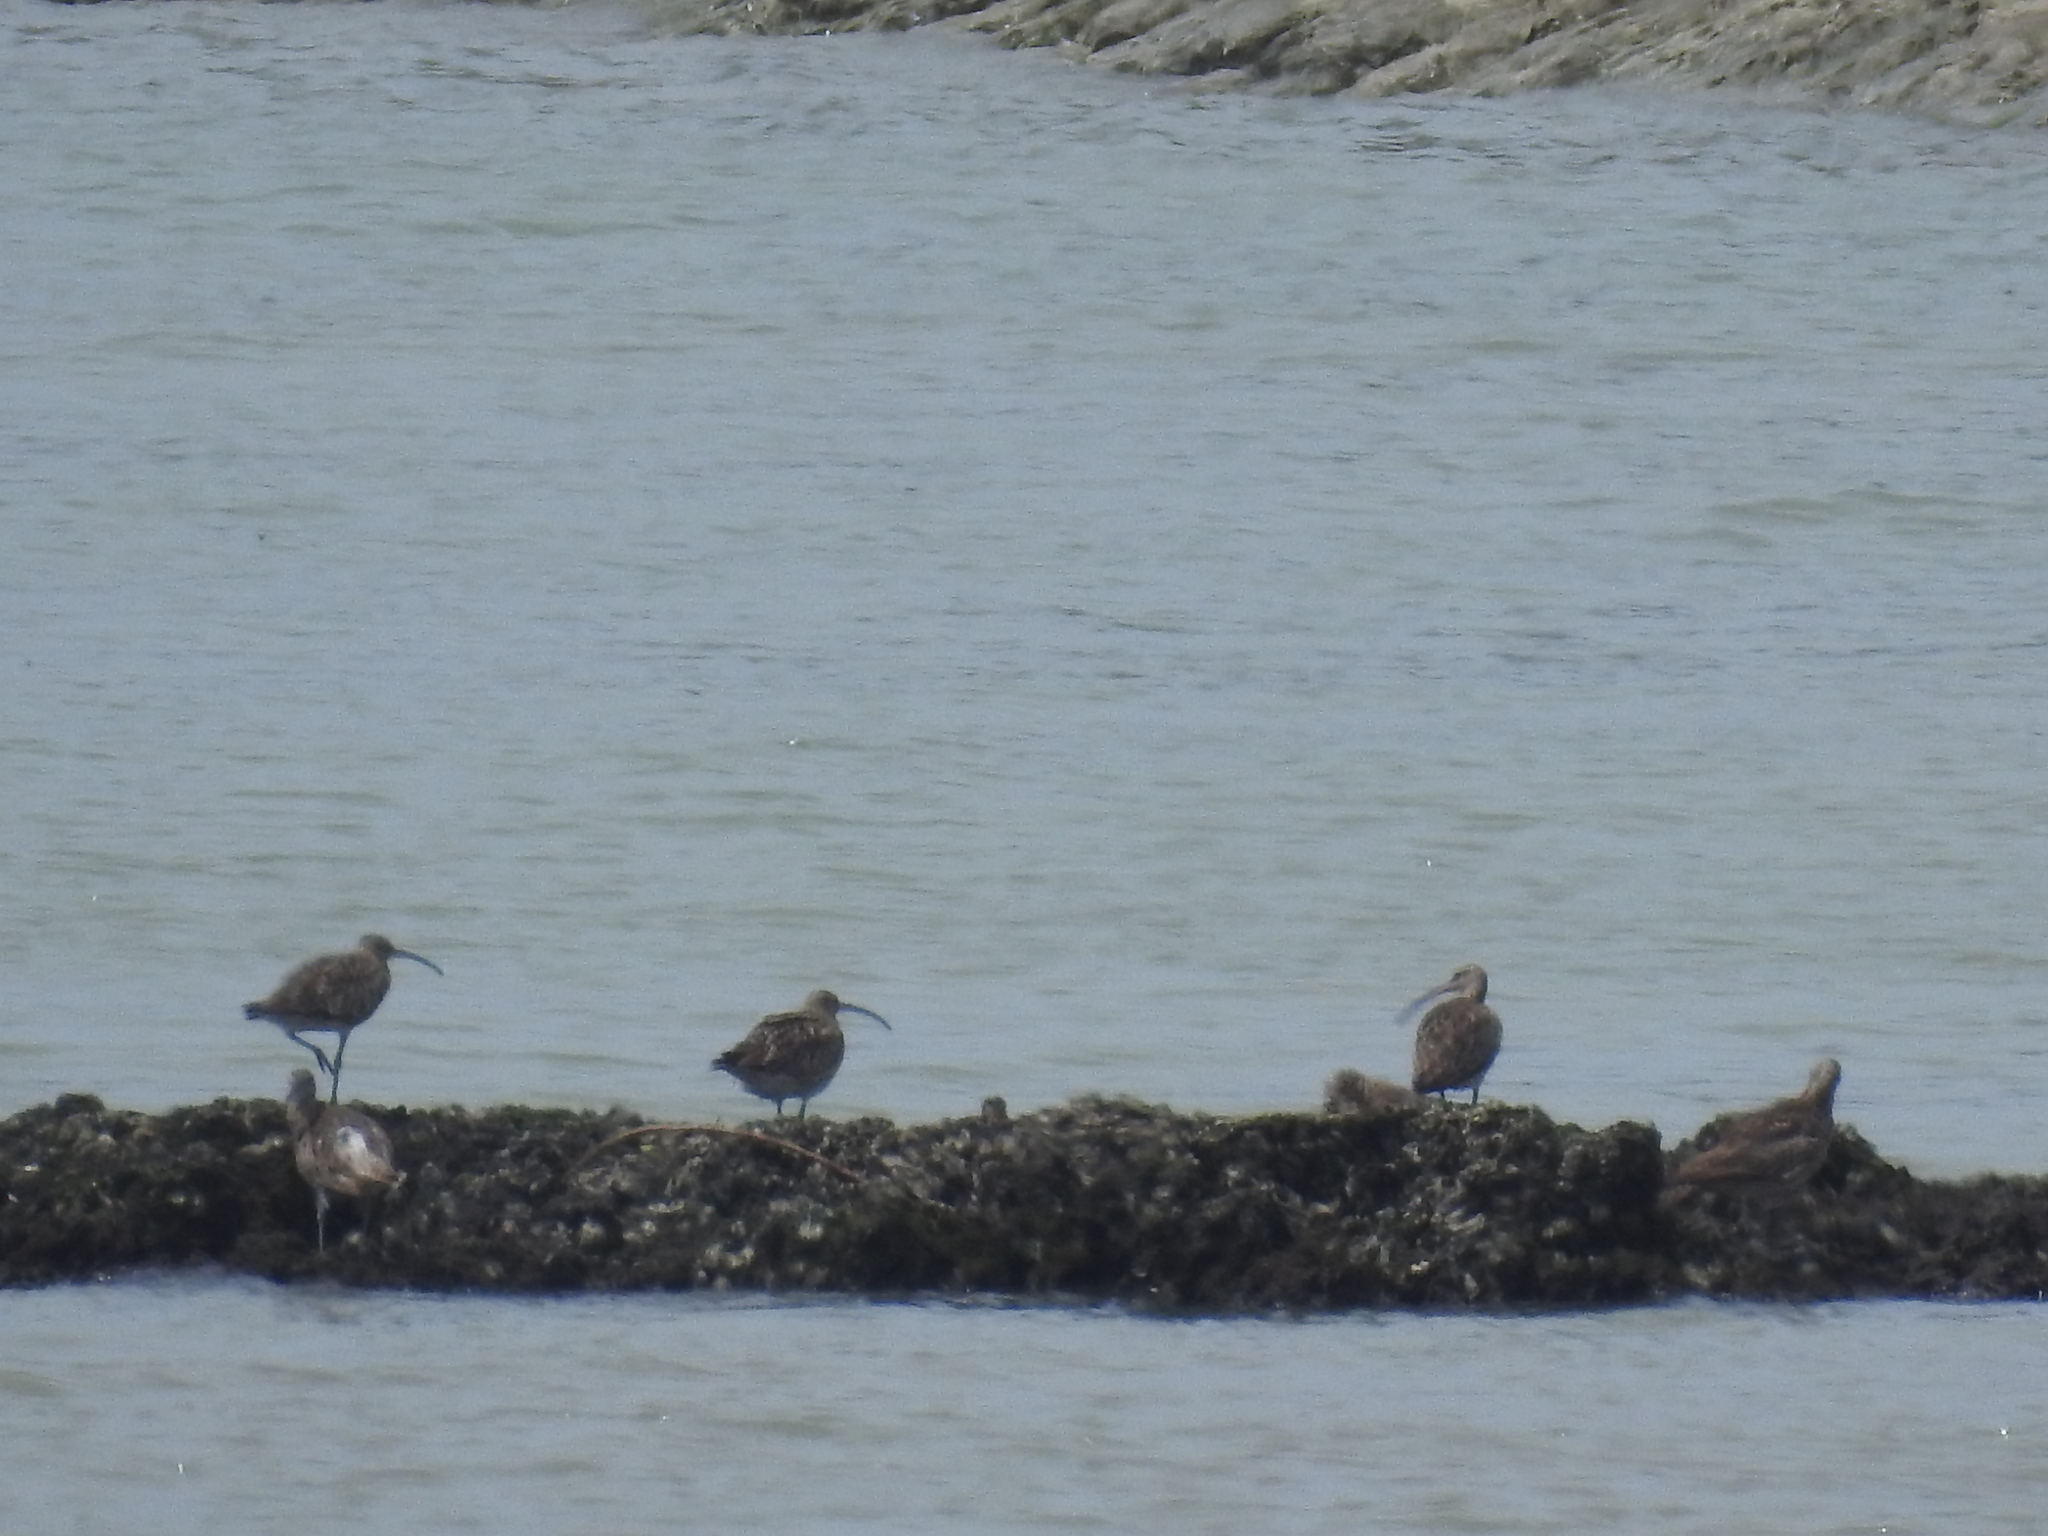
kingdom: Animalia
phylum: Chordata
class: Aves
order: Charadriiformes
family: Scolopacidae
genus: Numenius
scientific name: Numenius phaeopus
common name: Whimbrel
